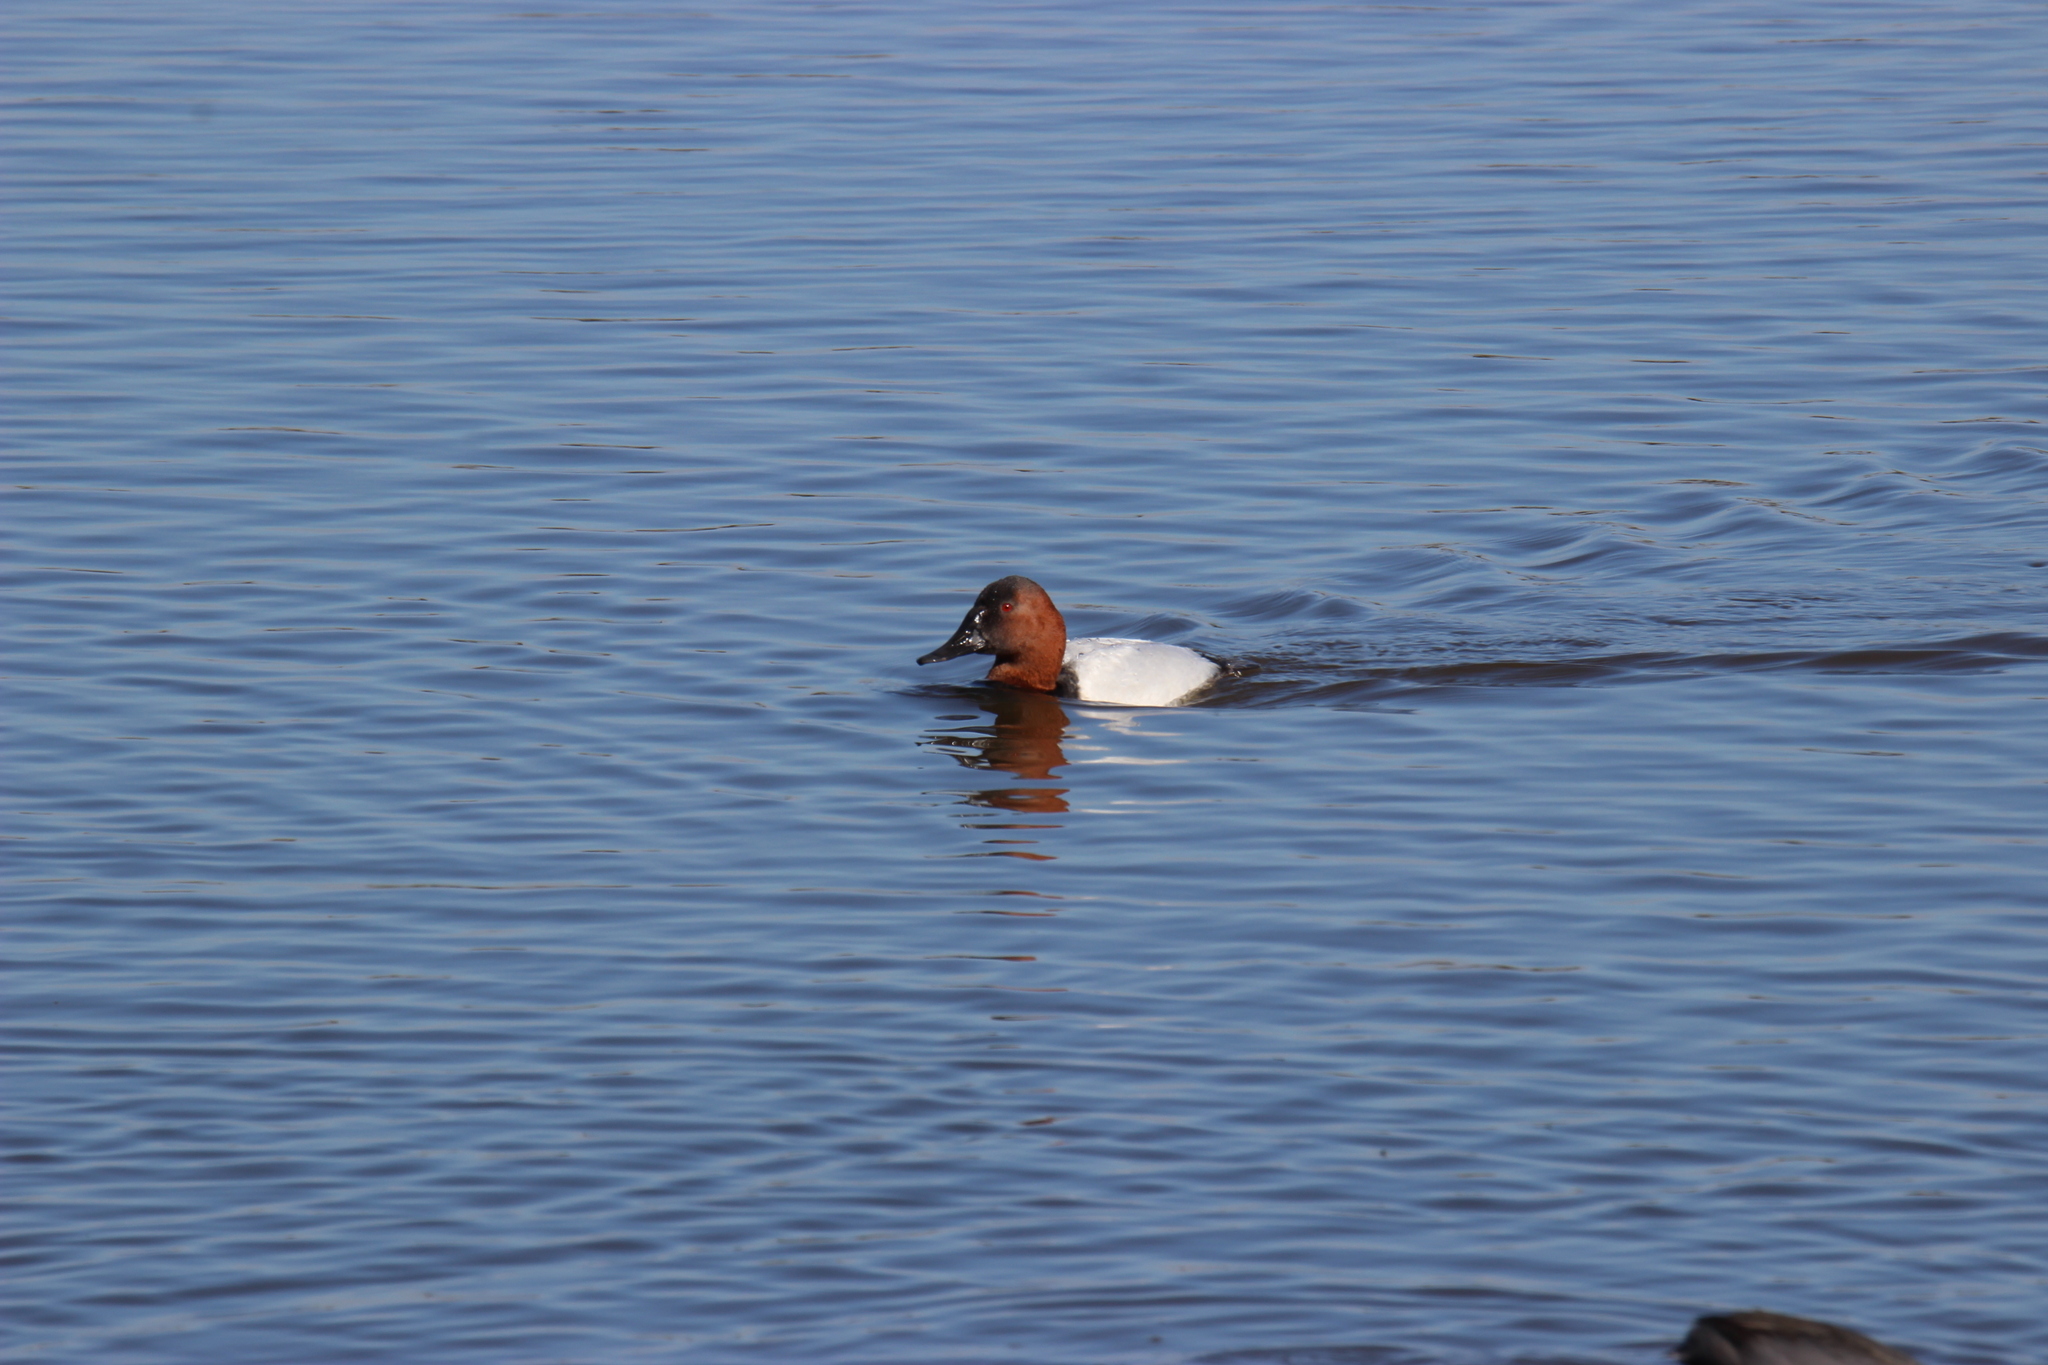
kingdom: Animalia
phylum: Chordata
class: Aves
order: Anseriformes
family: Anatidae
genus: Aythya
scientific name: Aythya valisineria
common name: Canvasback
